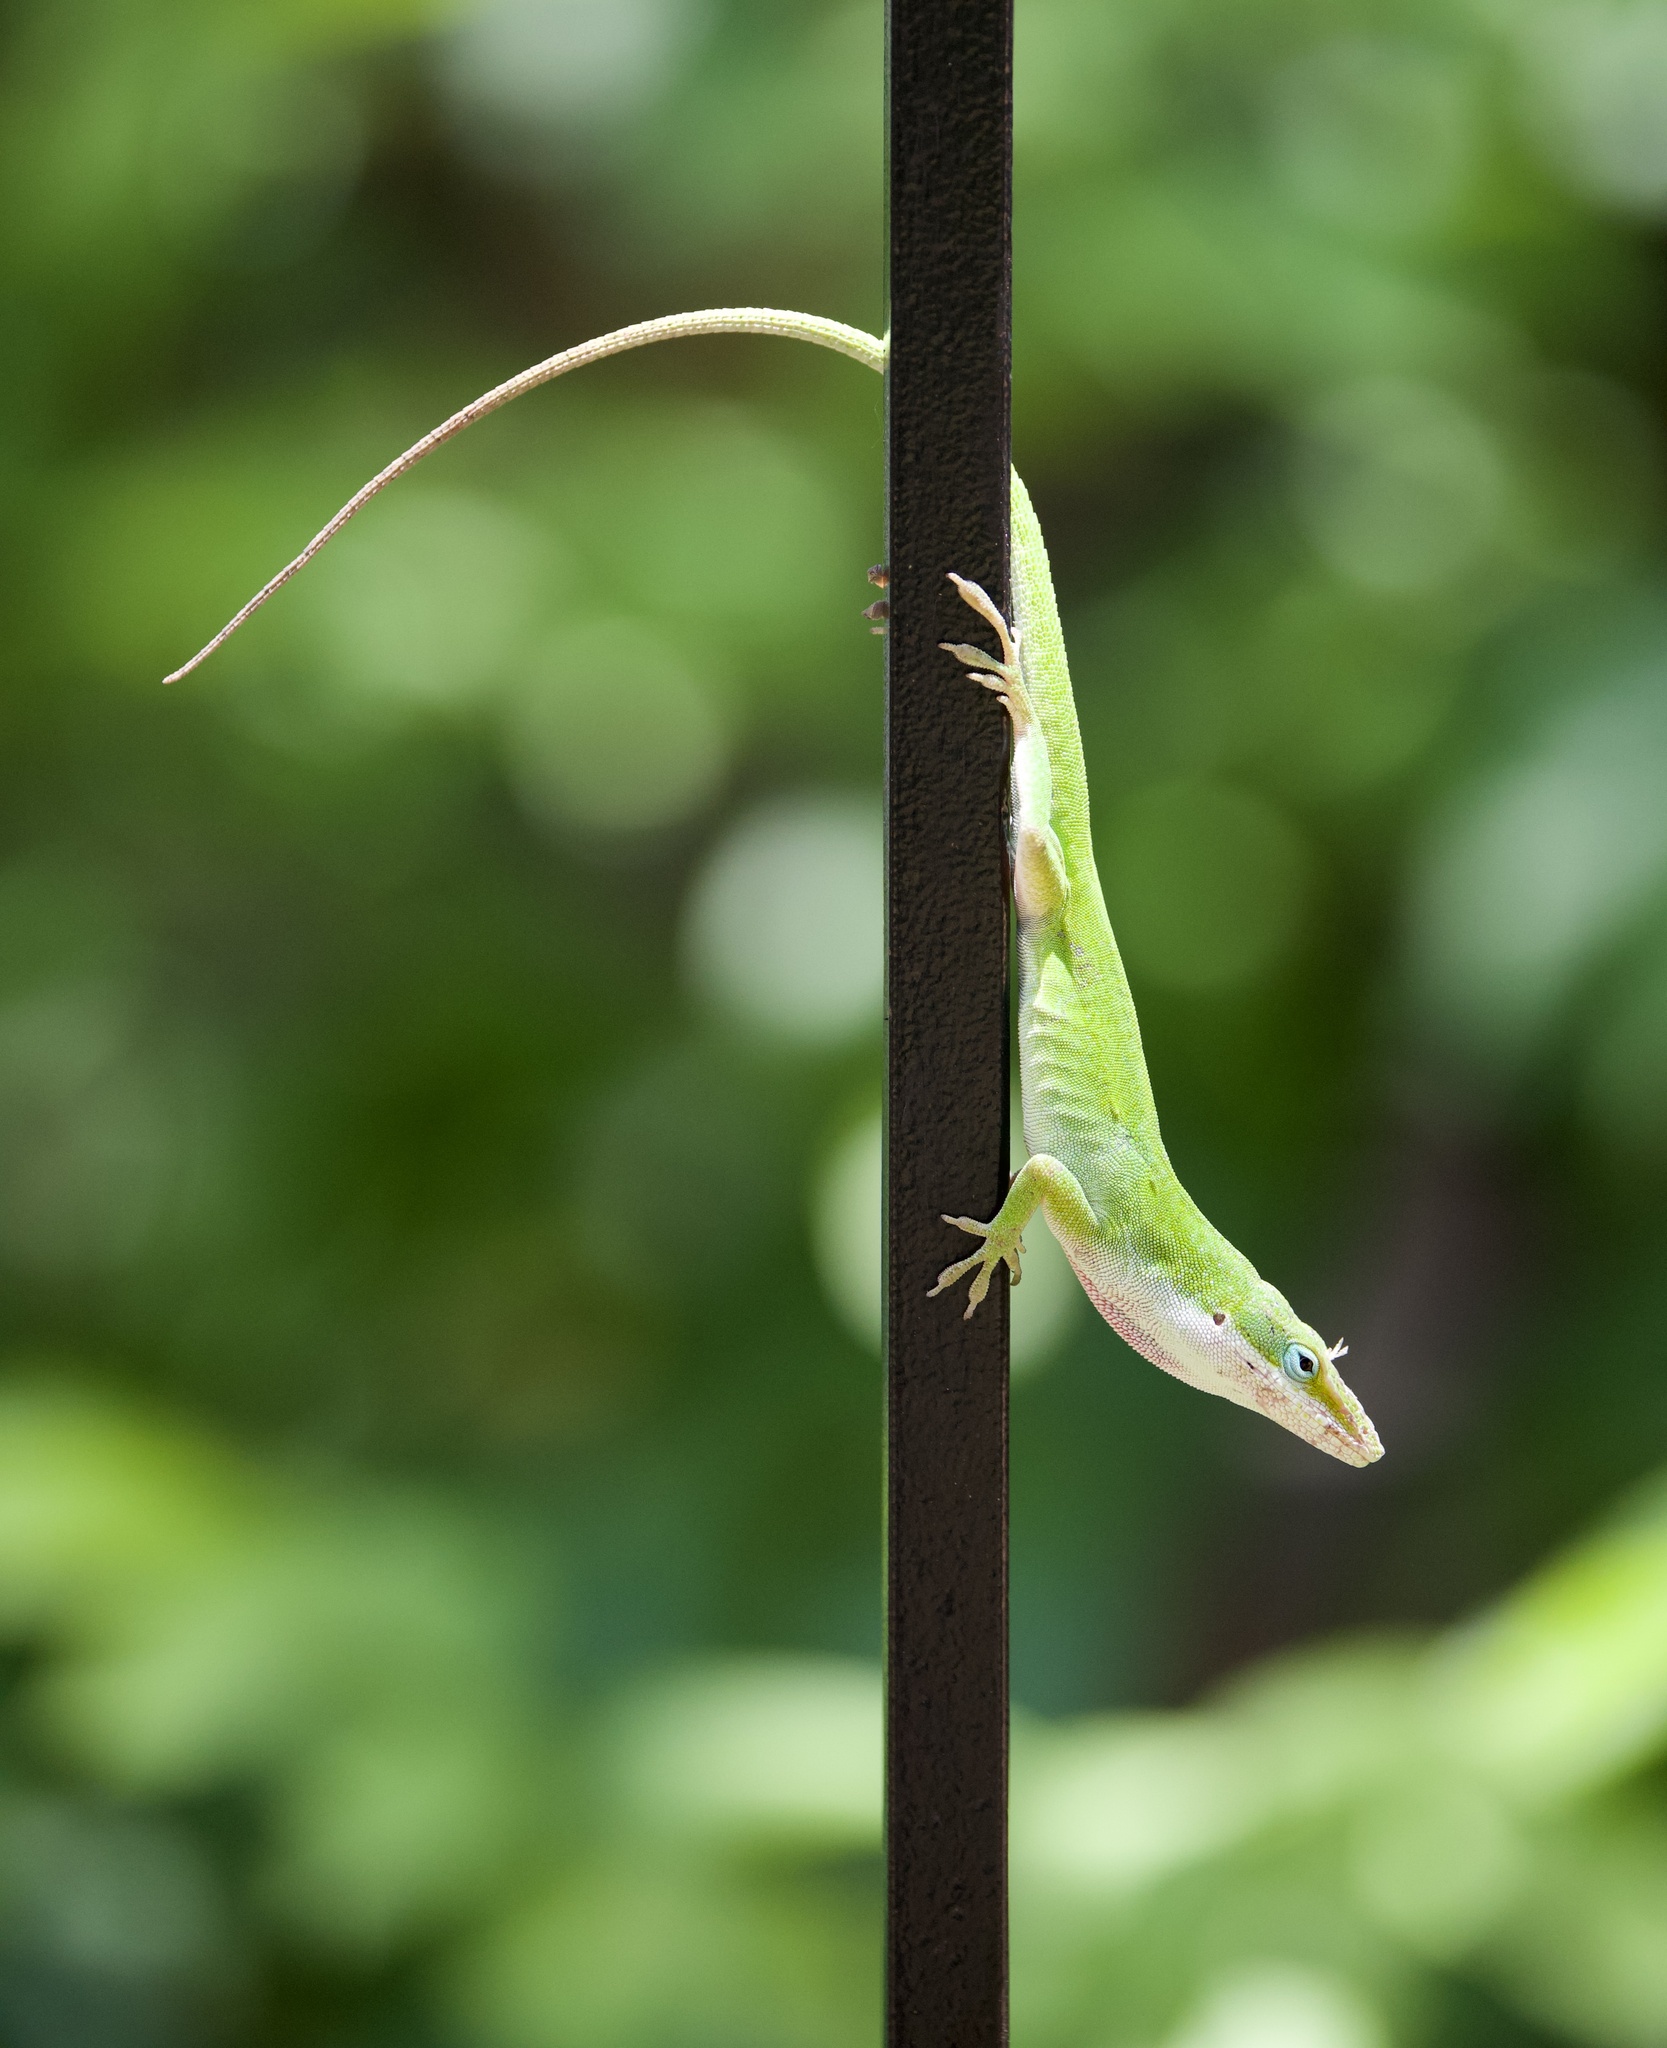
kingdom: Animalia
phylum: Chordata
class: Squamata
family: Dactyloidae
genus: Anolis
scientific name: Anolis carolinensis
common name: Green anole
